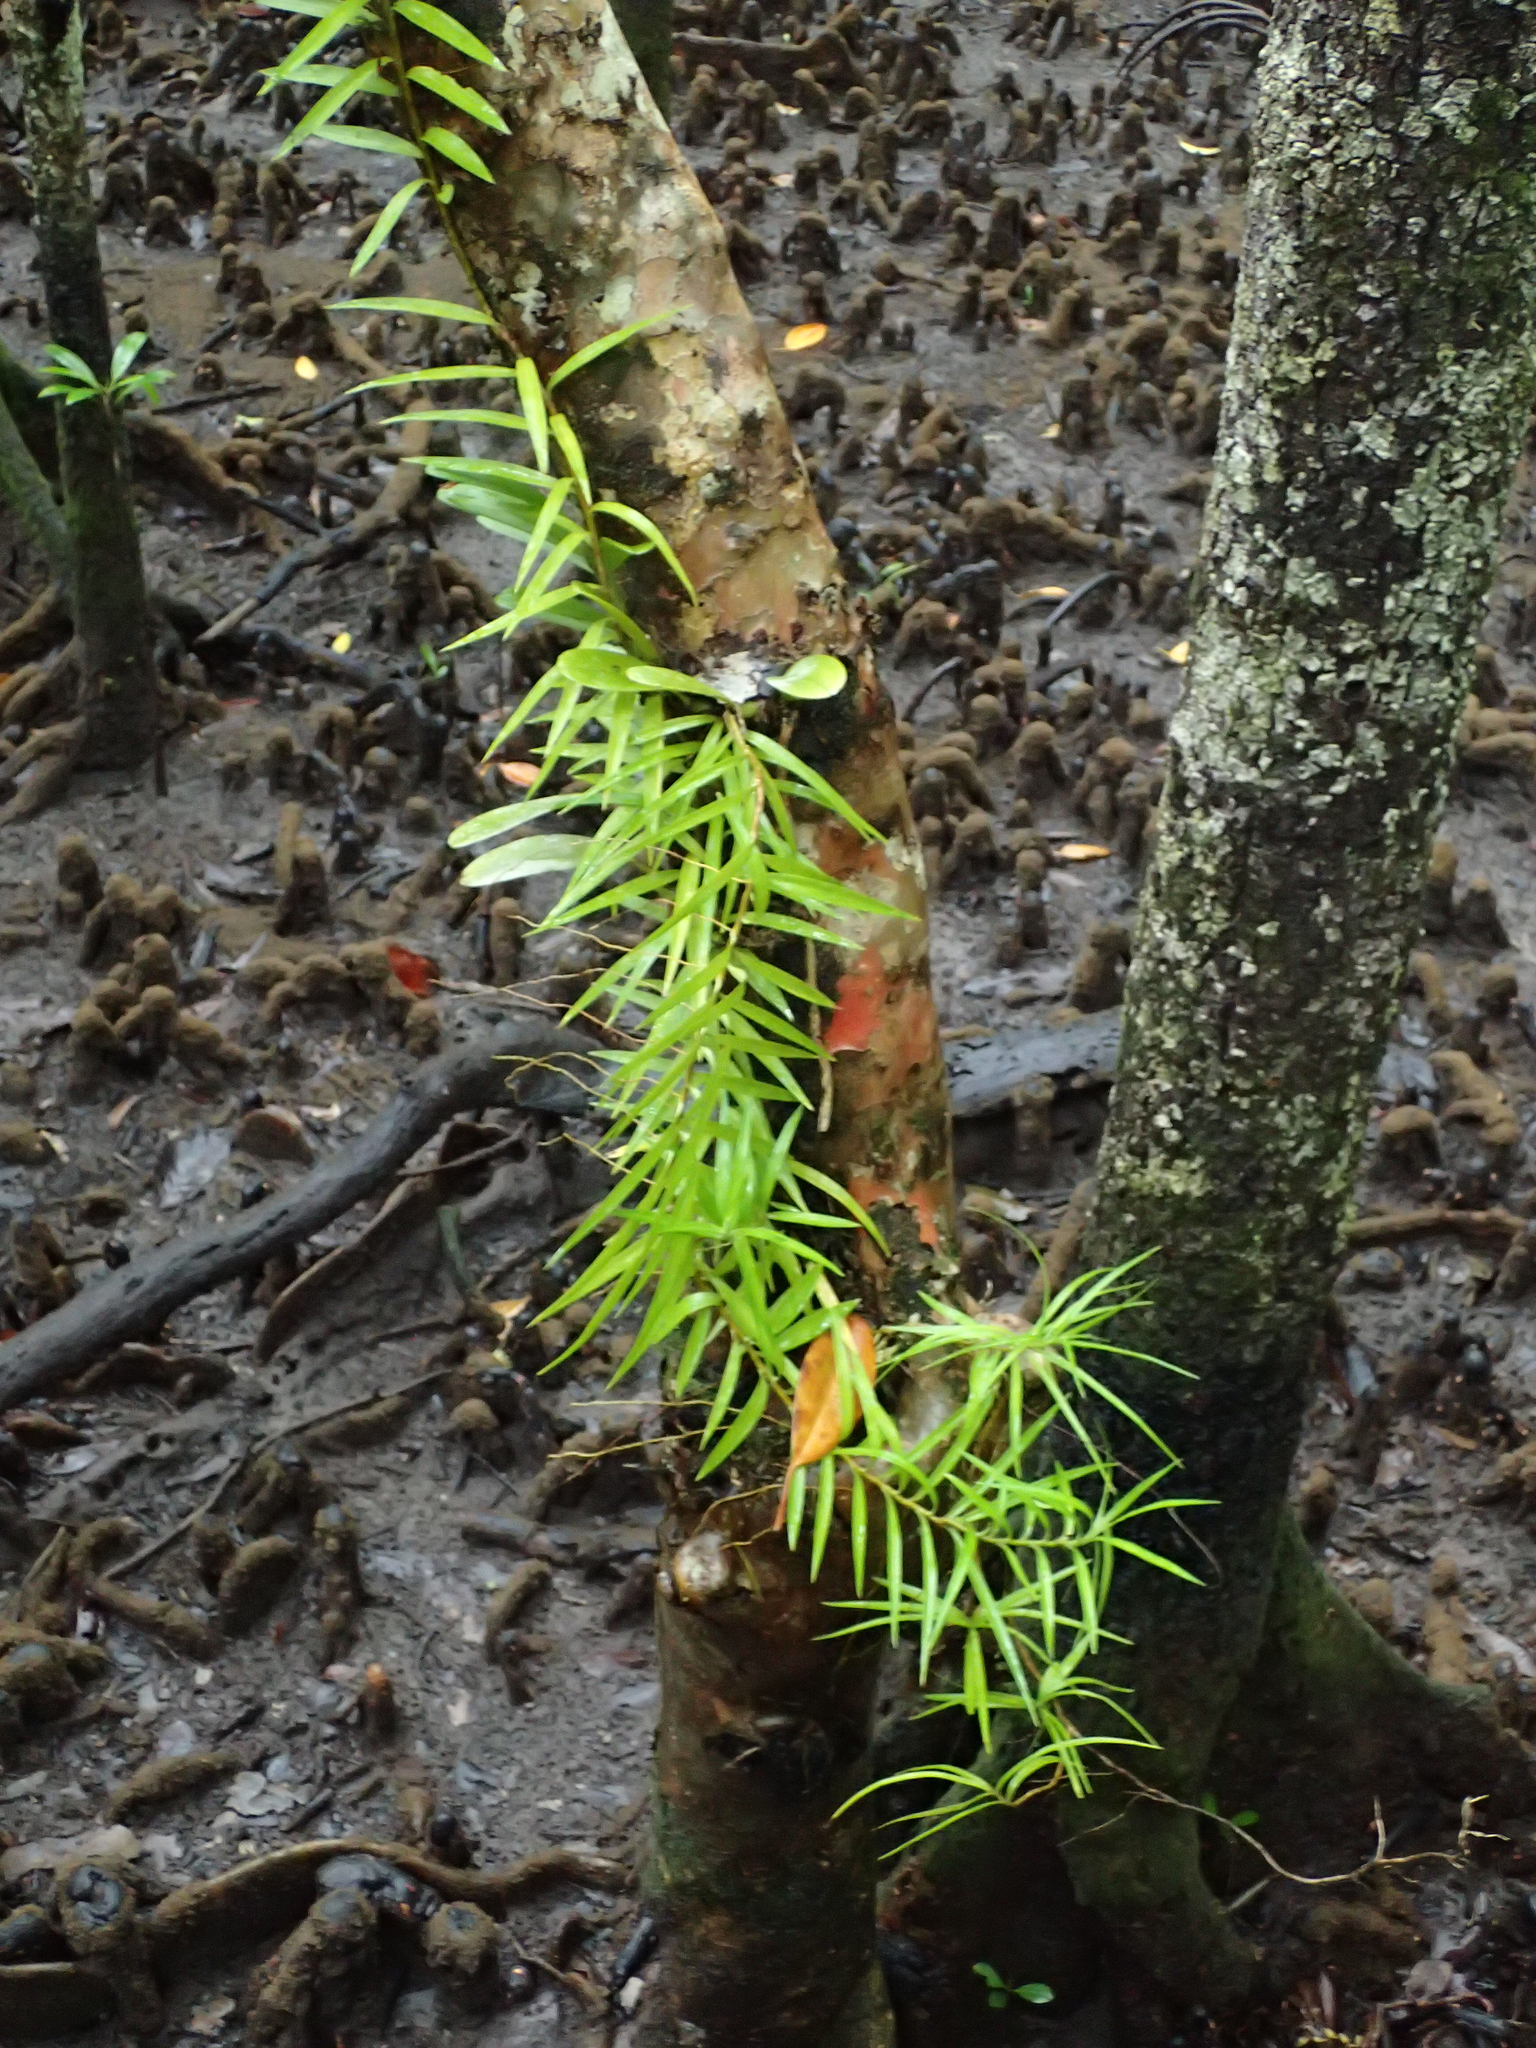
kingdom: Plantae
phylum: Tracheophyta
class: Liliopsida
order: Pandanales
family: Pandanaceae
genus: Freycinetia
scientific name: Freycinetia excelsa
